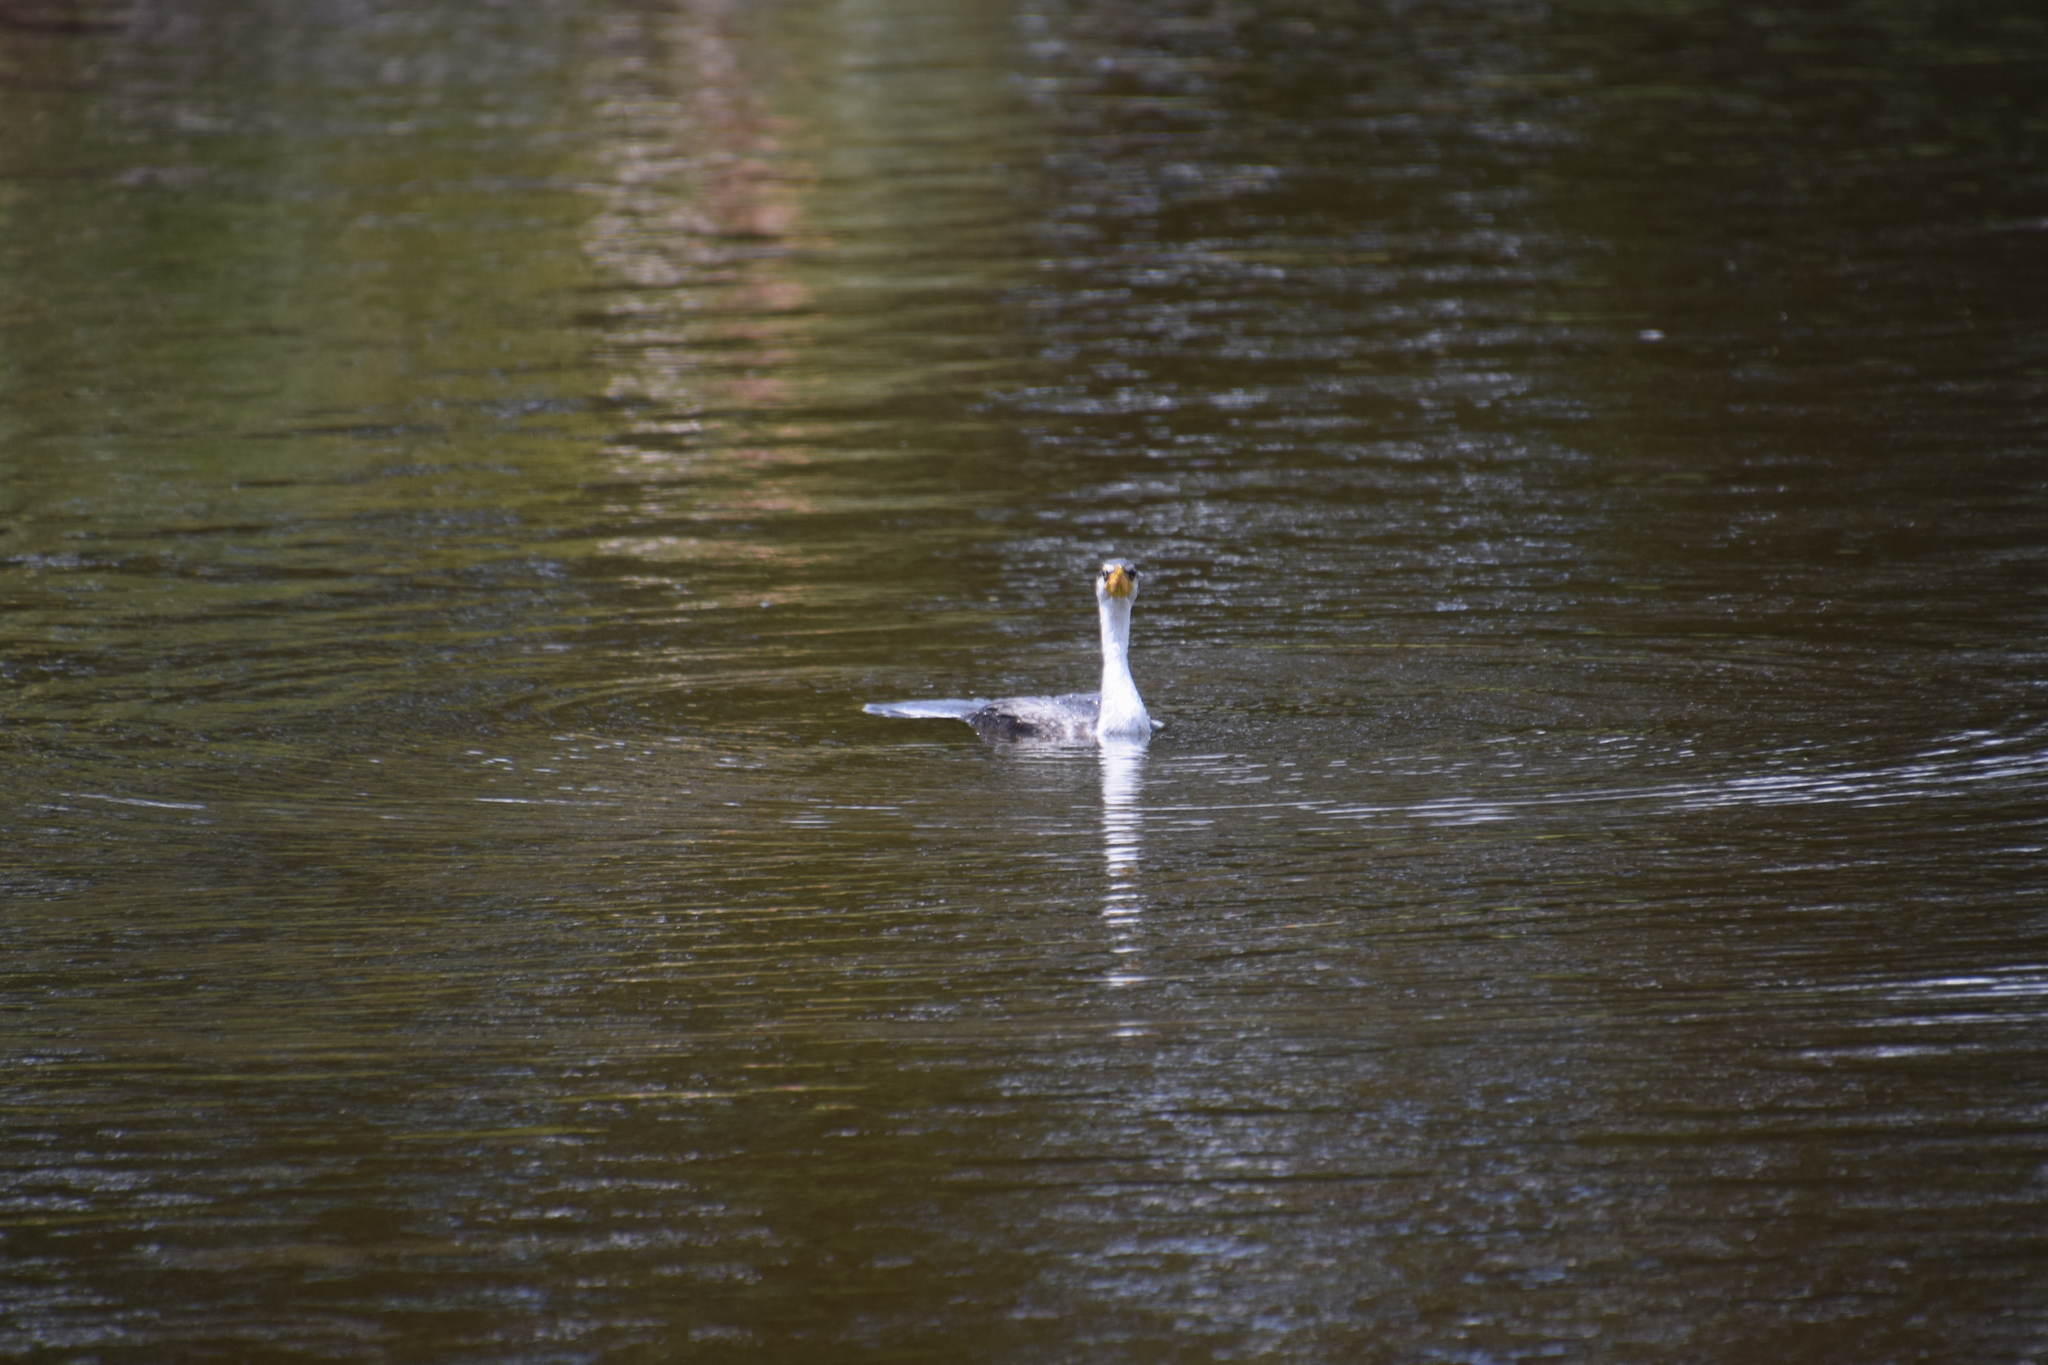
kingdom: Animalia
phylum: Chordata
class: Aves
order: Suliformes
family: Phalacrocoracidae
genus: Microcarbo
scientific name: Microcarbo melanoleucos
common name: Little pied cormorant
